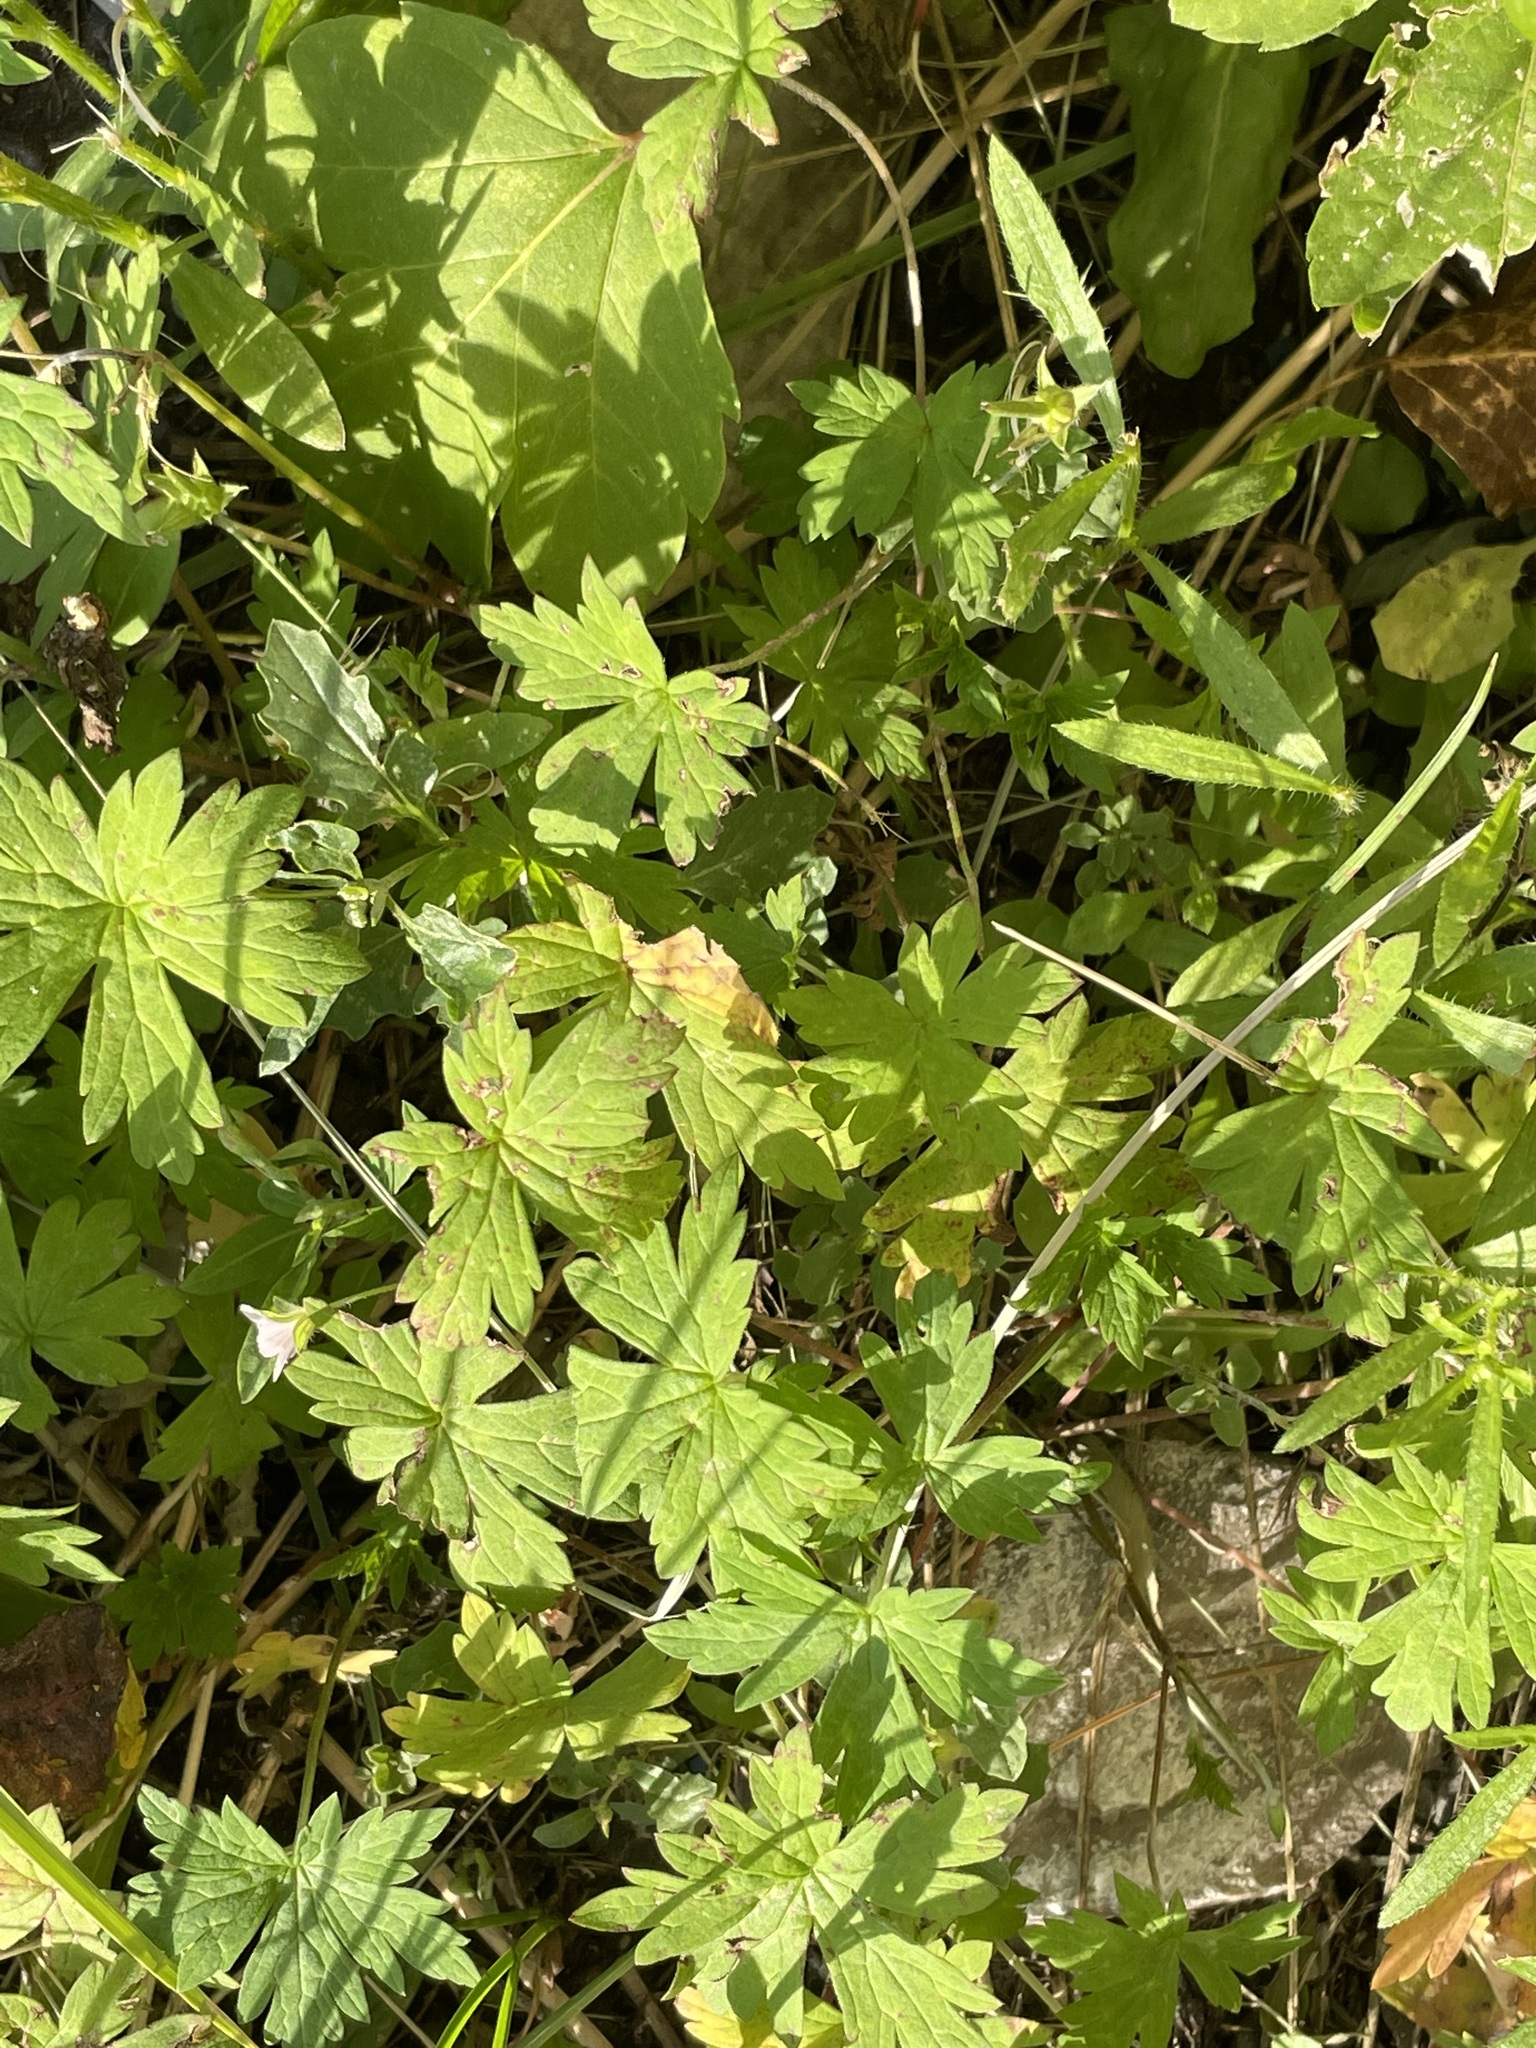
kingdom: Plantae
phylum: Tracheophyta
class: Magnoliopsida
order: Geraniales
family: Geraniaceae
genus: Geranium
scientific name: Geranium sibiricum
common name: Siberian crane's-bill
